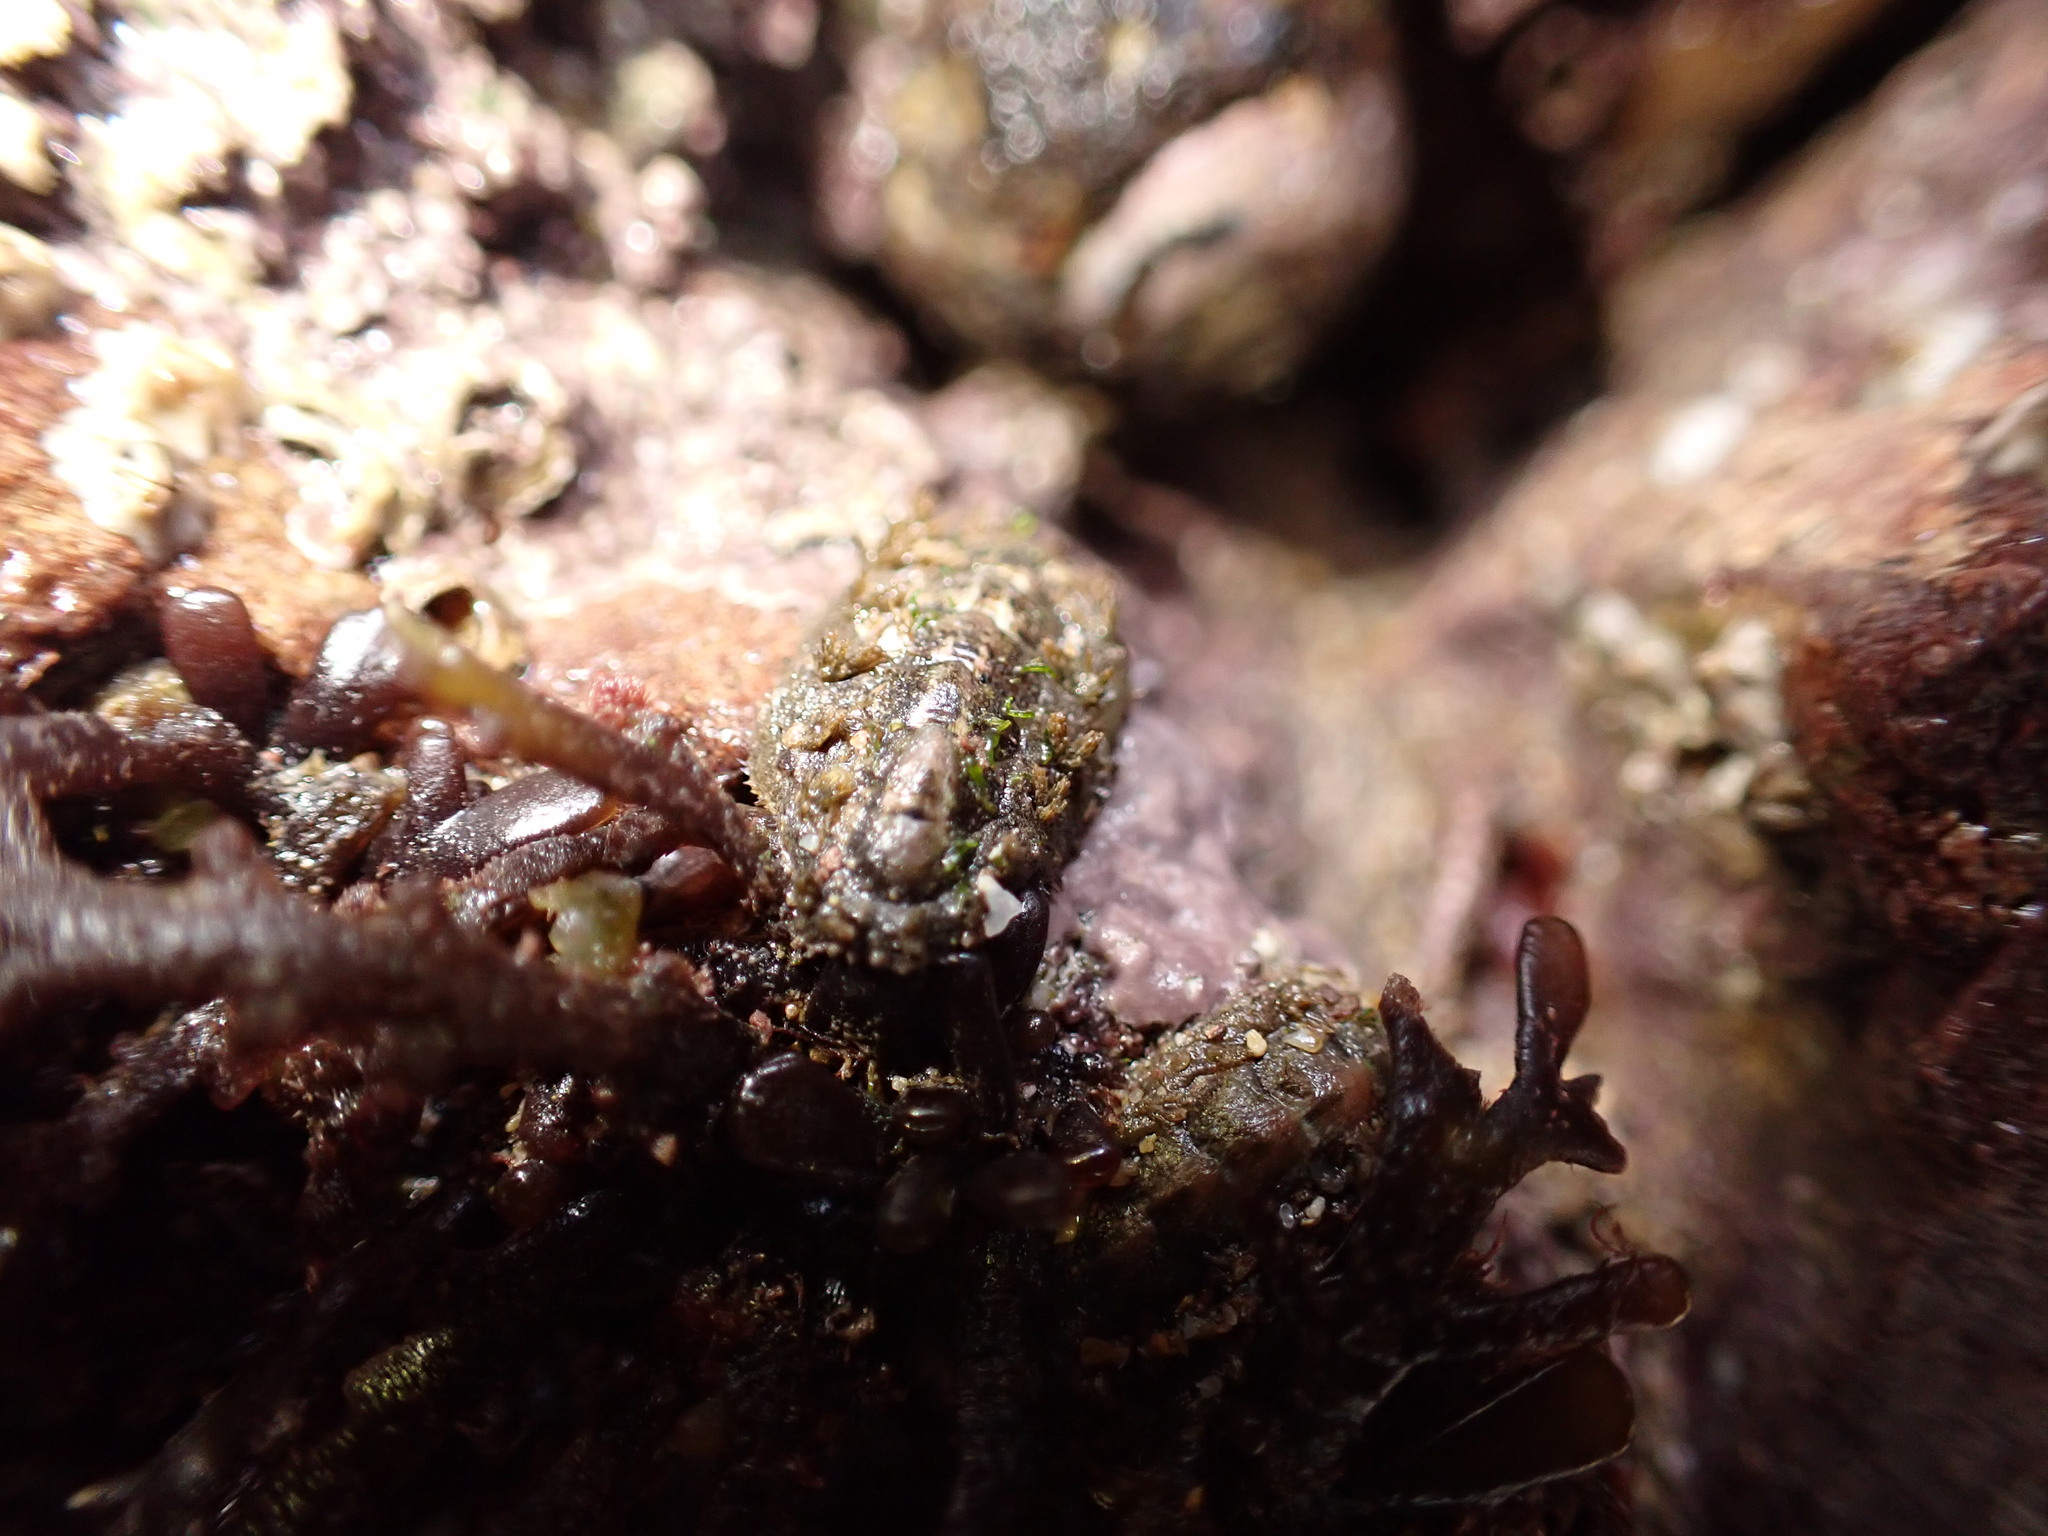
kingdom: Animalia
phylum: Mollusca
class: Polyplacophora
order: Chitonida
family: Acanthochitonidae
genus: Acanthochitona
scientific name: Acanthochitona crinita
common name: Bristly mail chiton
